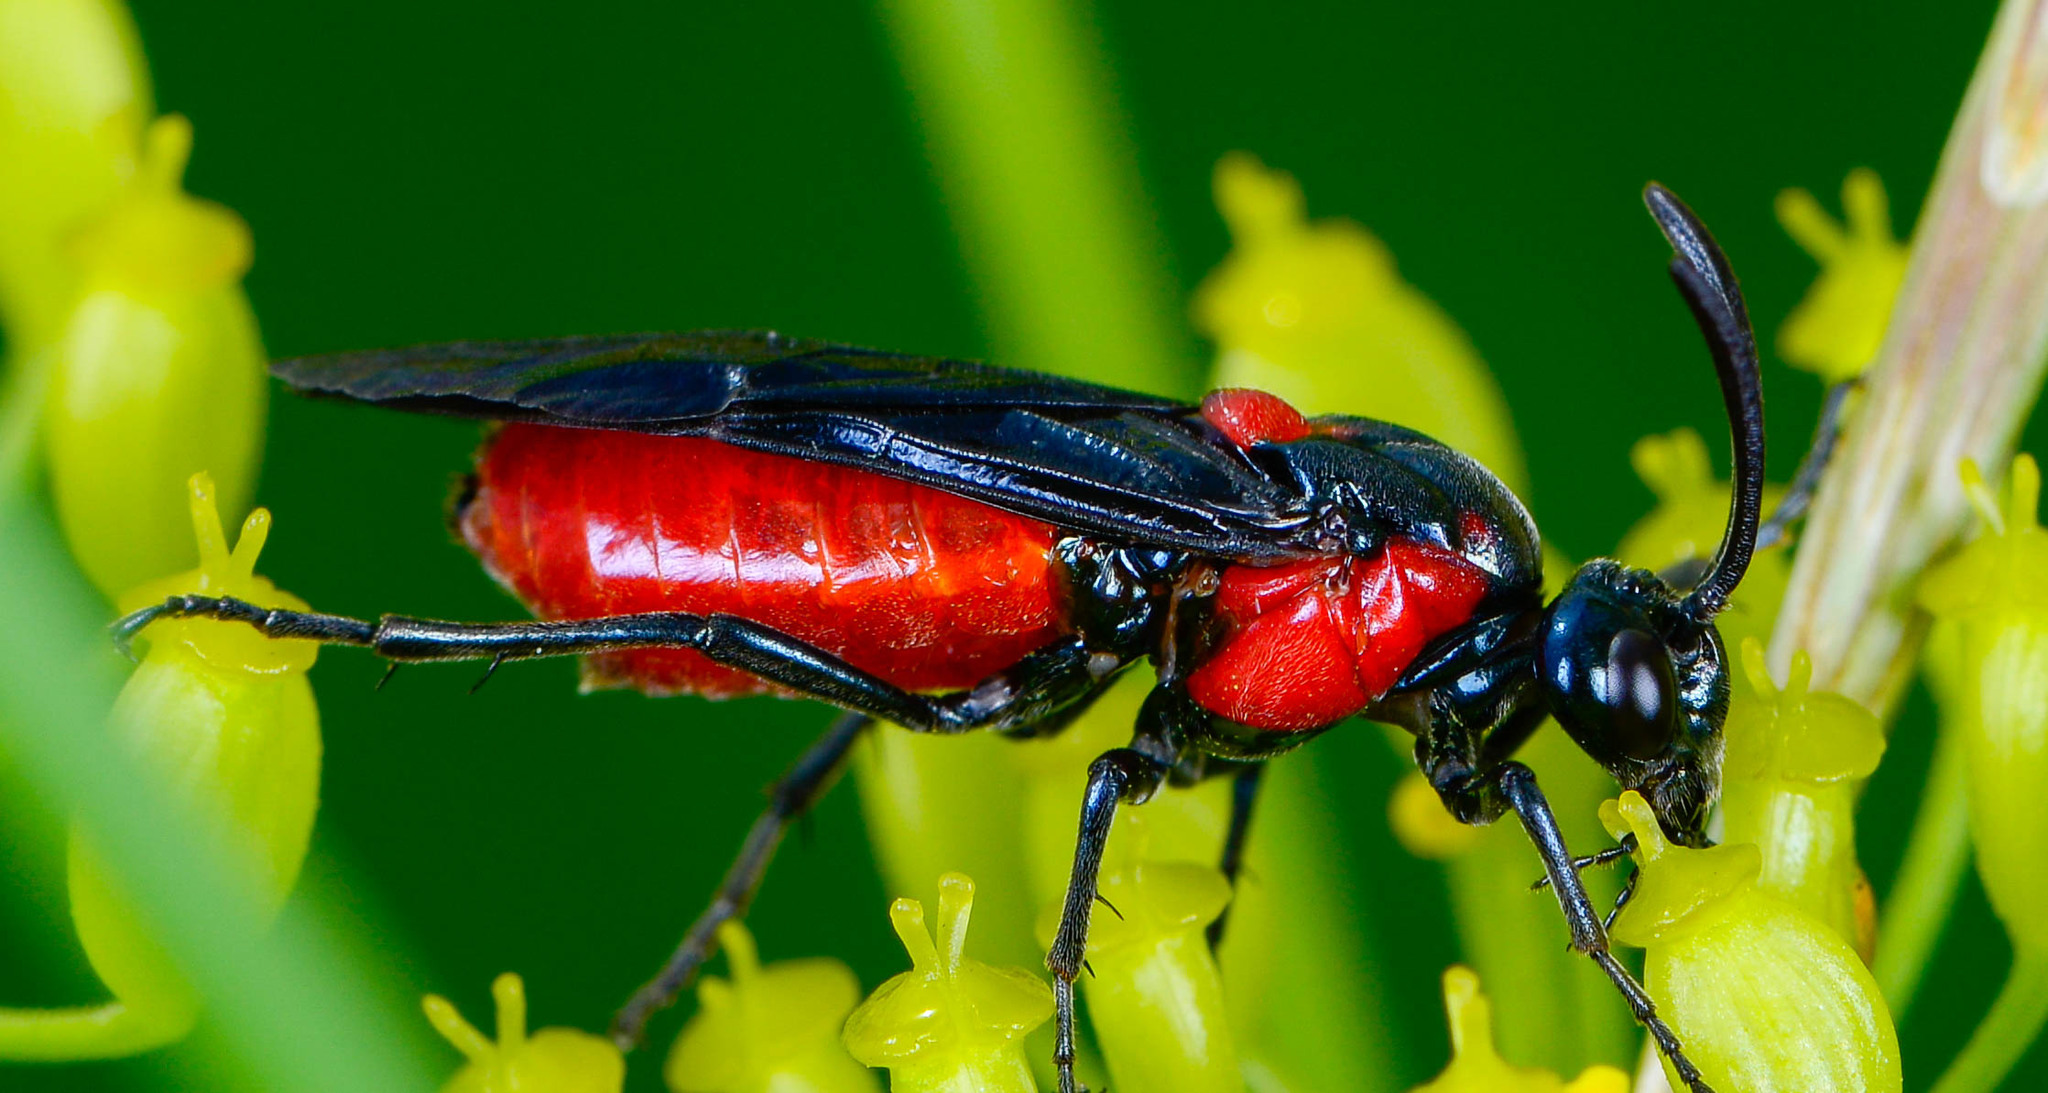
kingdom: Animalia
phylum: Arthropoda
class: Insecta
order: Hymenoptera
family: Argidae
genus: Arge
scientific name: Arge humeralis
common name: Poison ivy sawfly
